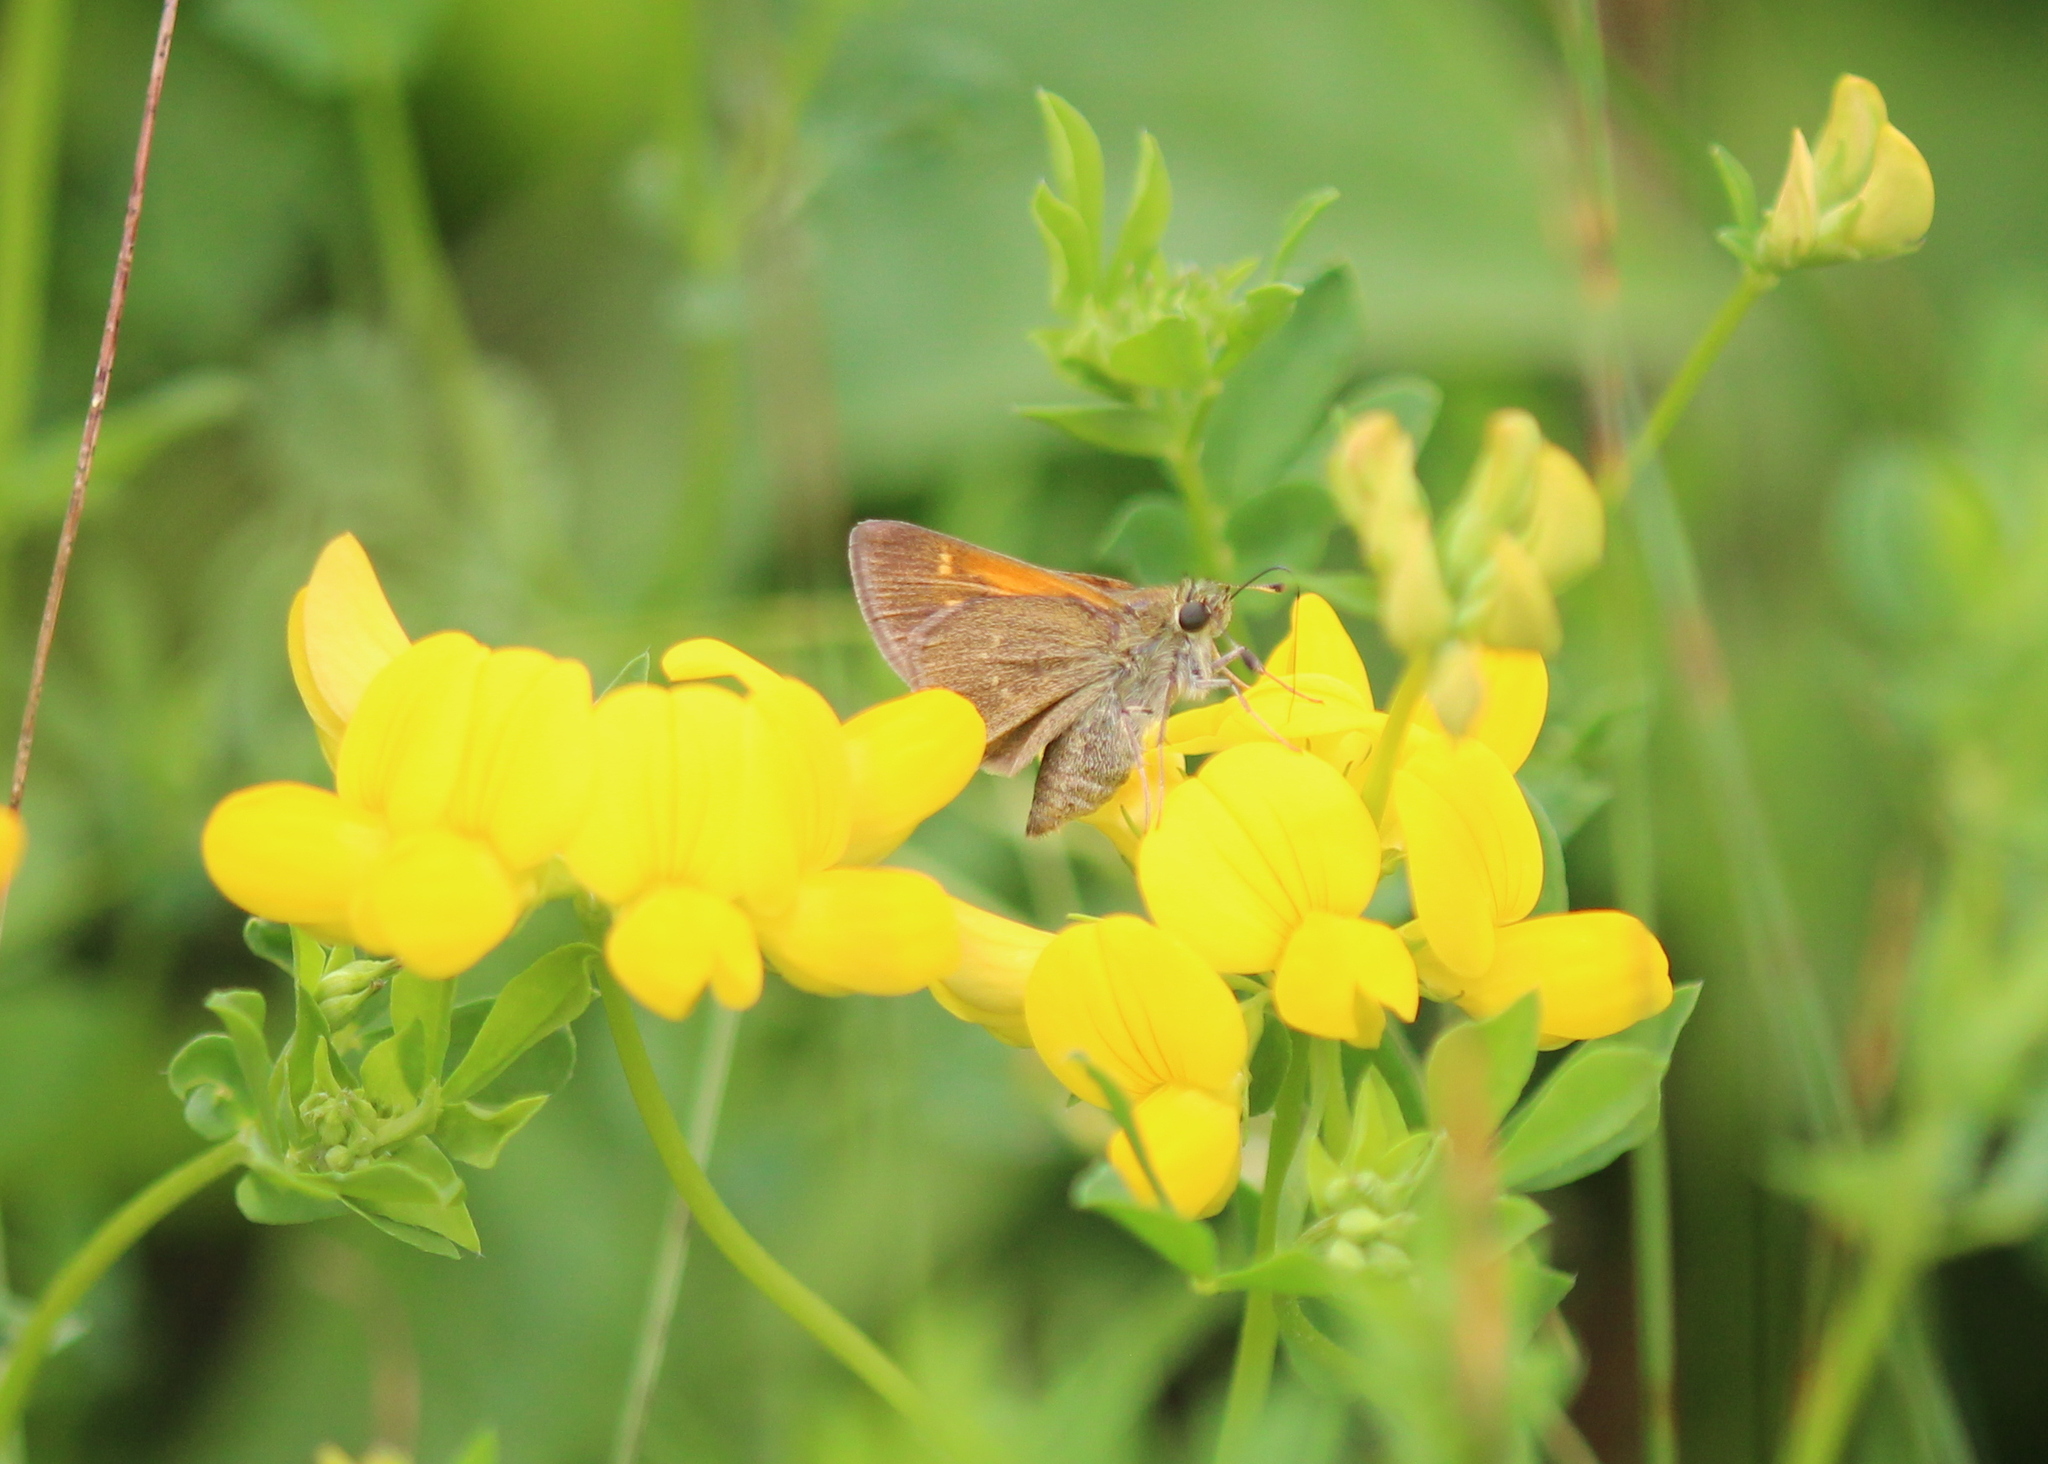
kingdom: Animalia
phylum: Arthropoda
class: Insecta
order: Lepidoptera
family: Hesperiidae
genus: Polites
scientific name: Polites themistocles
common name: Tawny-edged skipper
